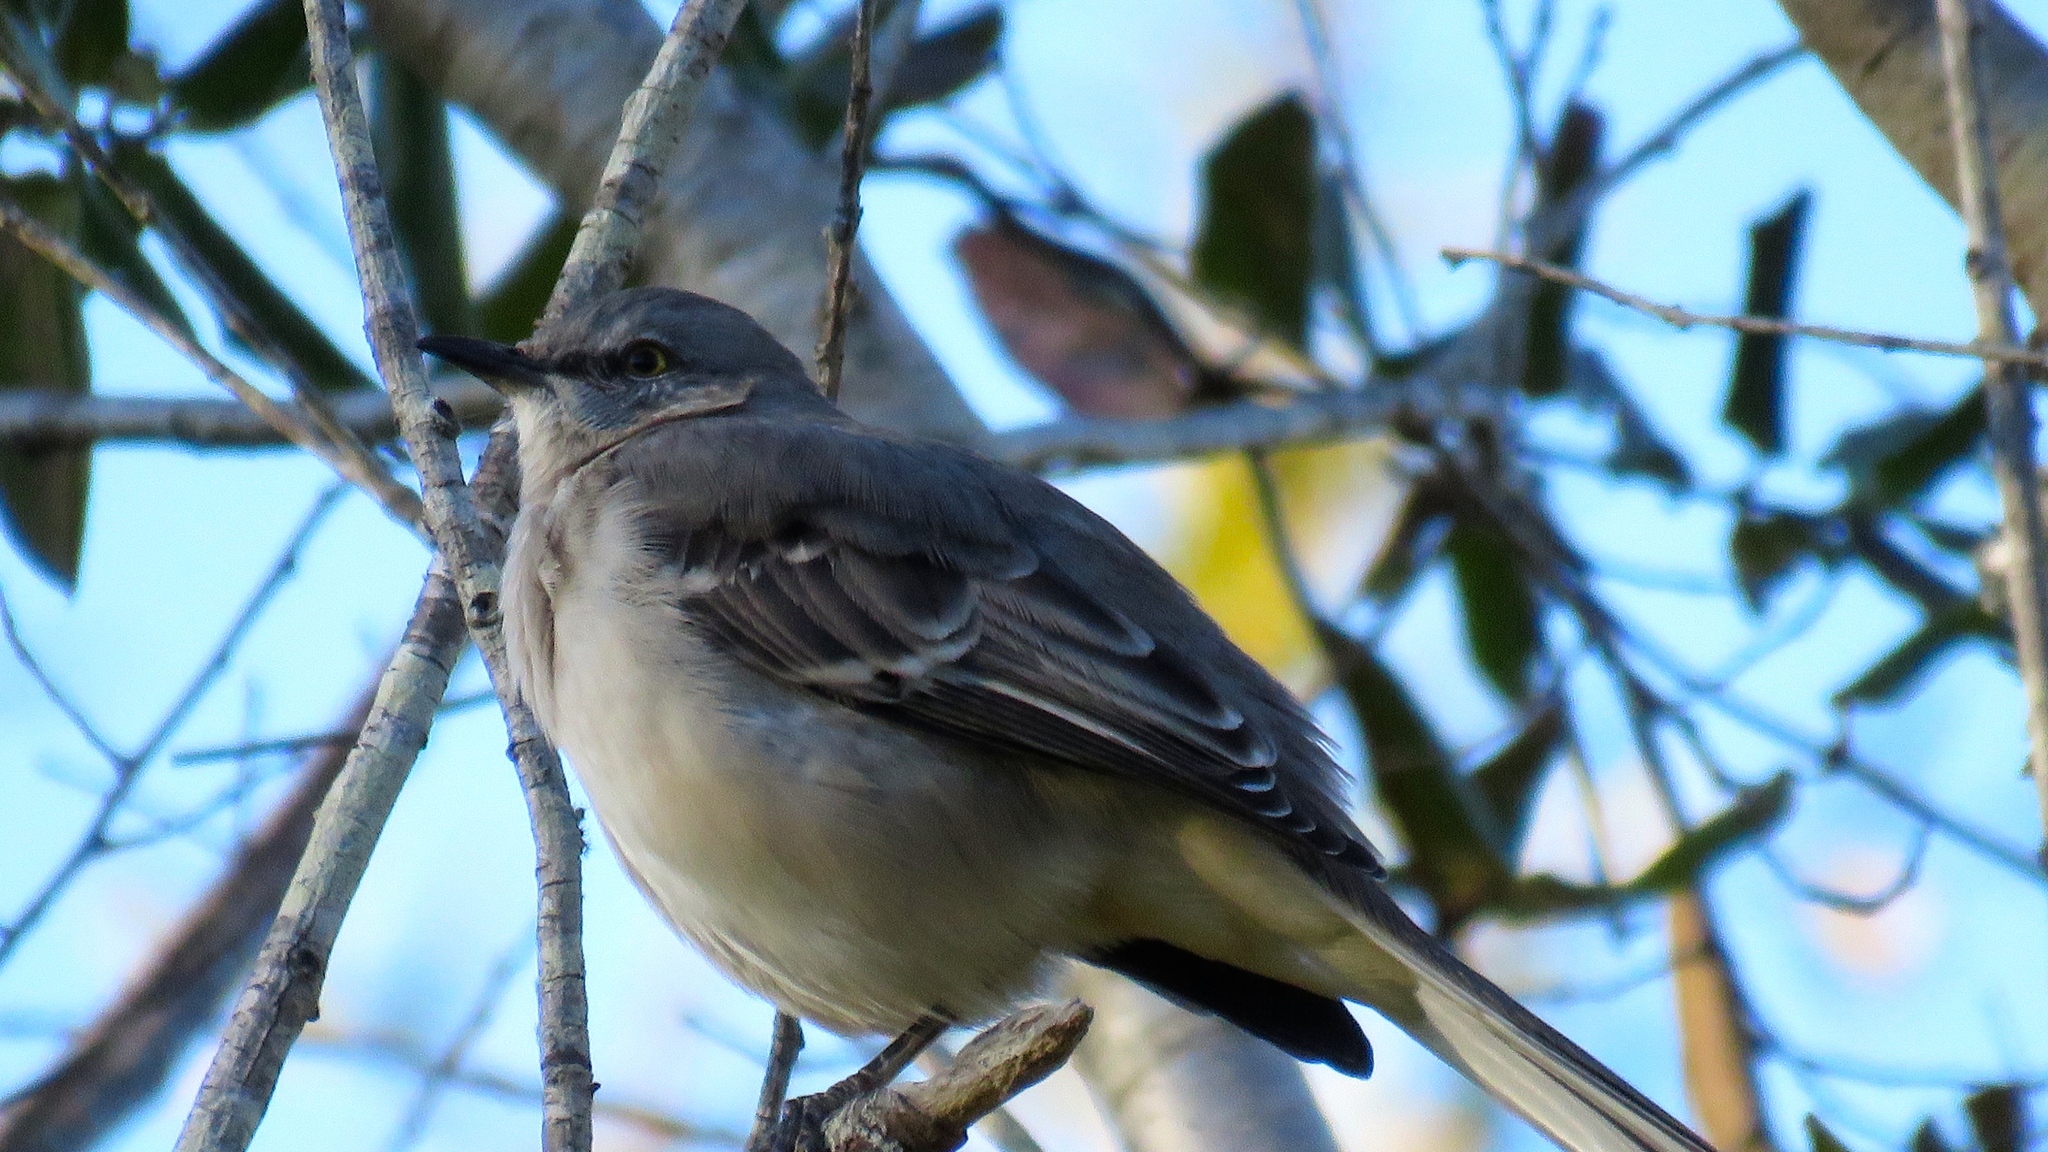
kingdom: Animalia
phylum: Chordata
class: Aves
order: Passeriformes
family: Mimidae
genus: Mimus
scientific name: Mimus polyglottos
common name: Northern mockingbird
